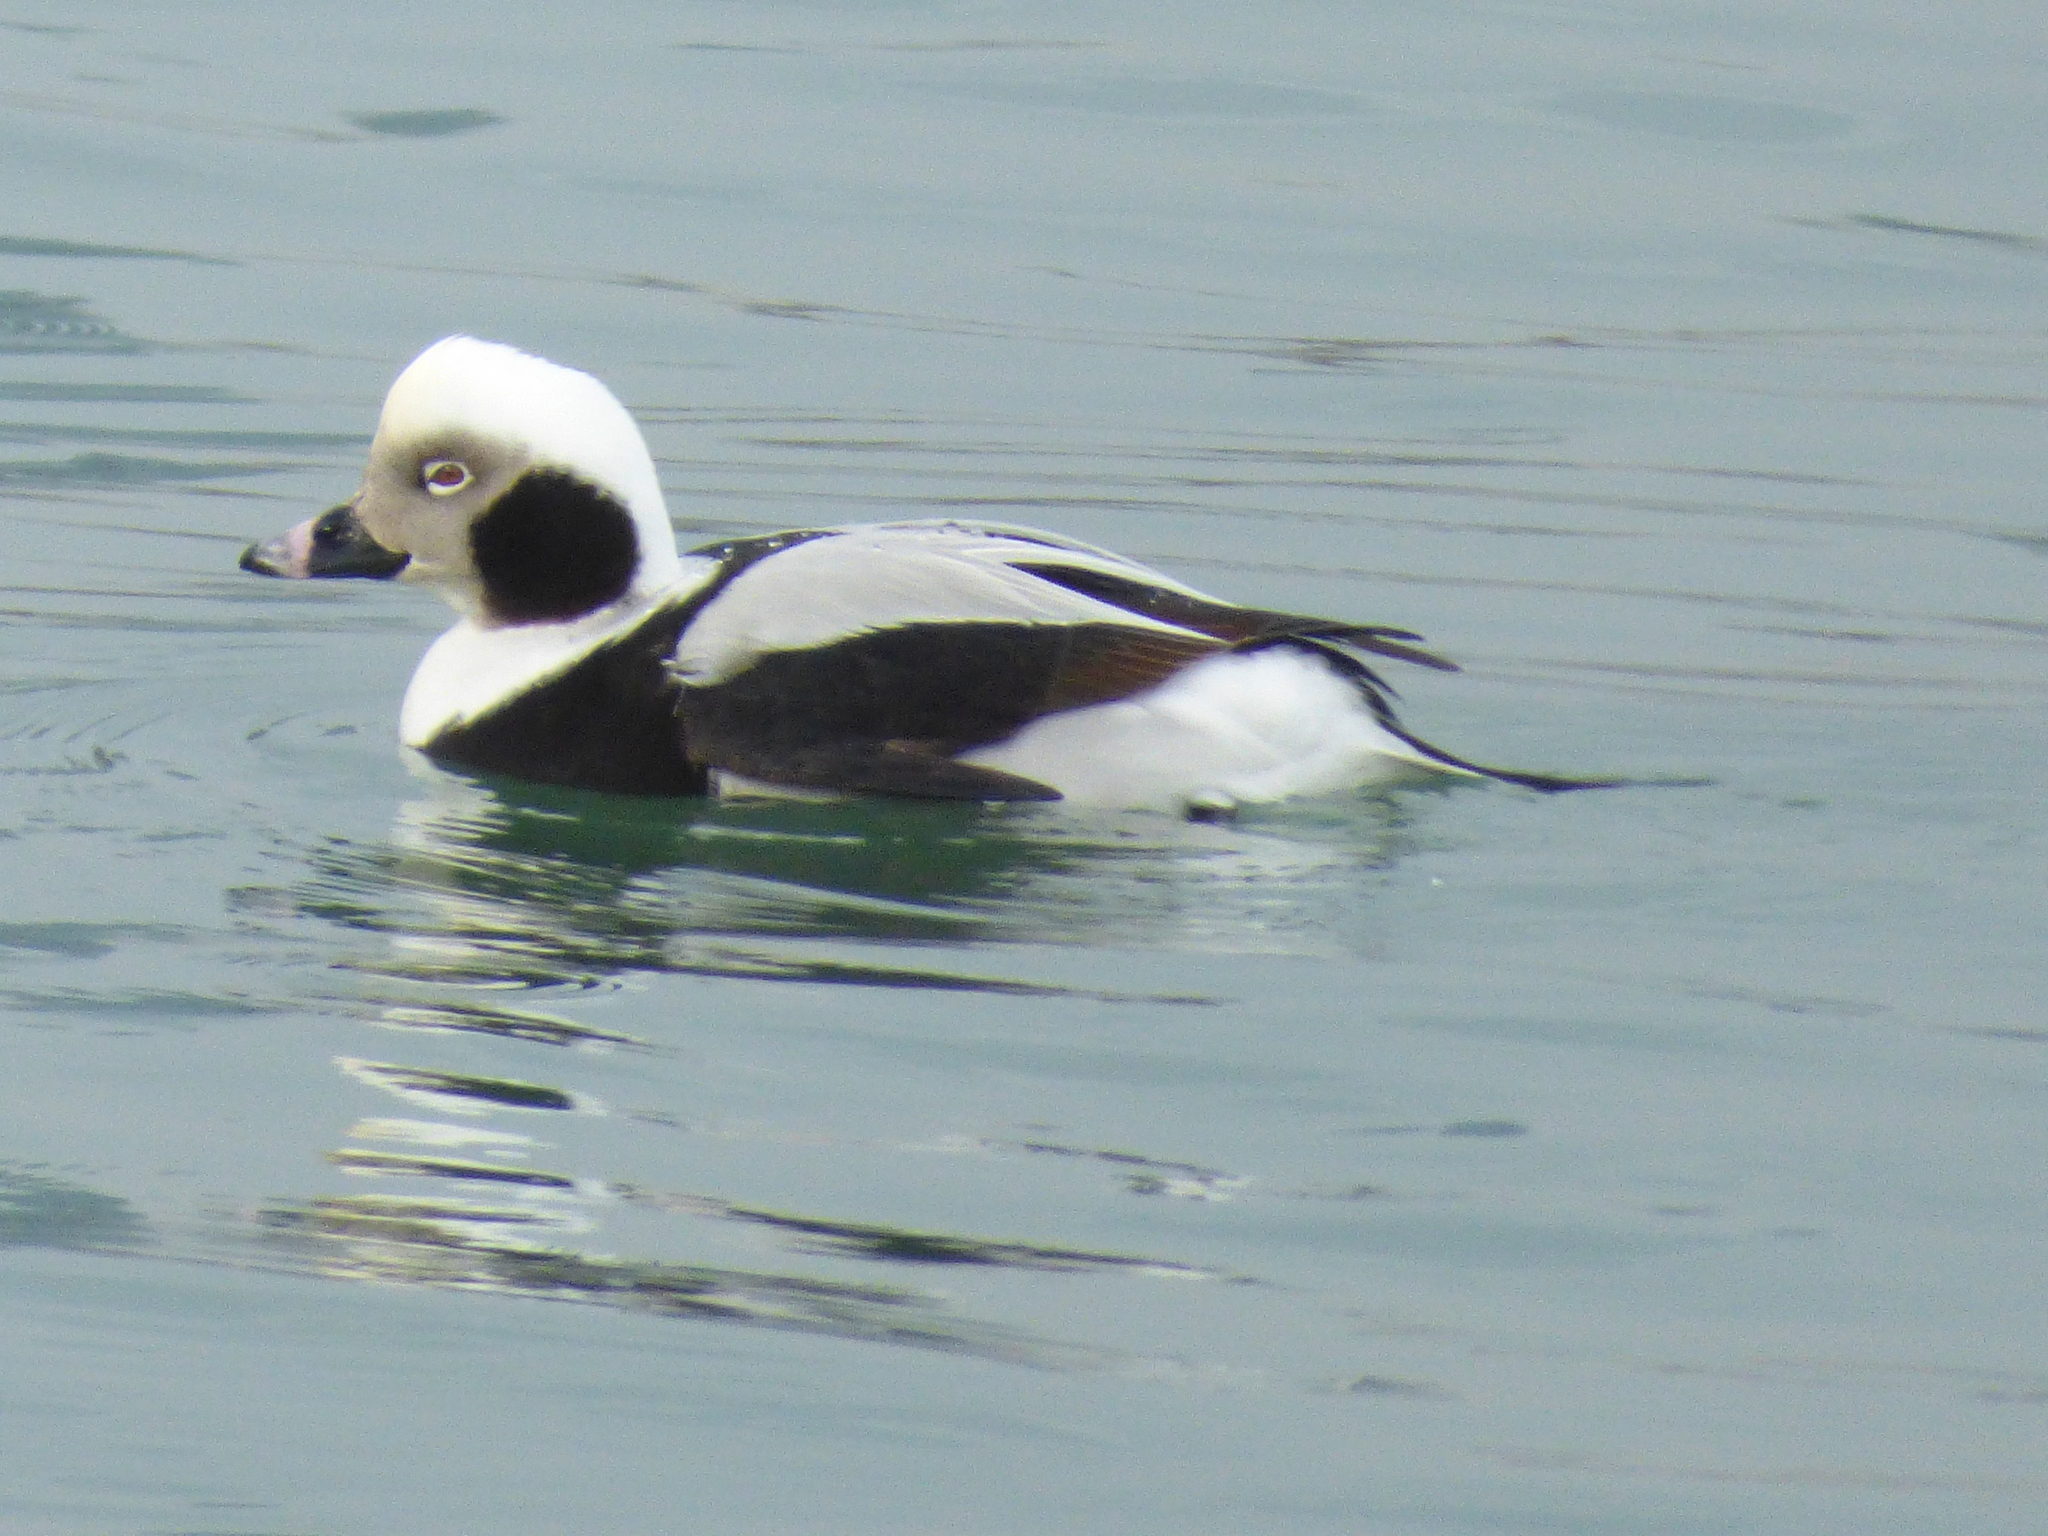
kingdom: Animalia
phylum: Chordata
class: Aves
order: Anseriformes
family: Anatidae
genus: Clangula
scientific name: Clangula hyemalis
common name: Long-tailed duck
